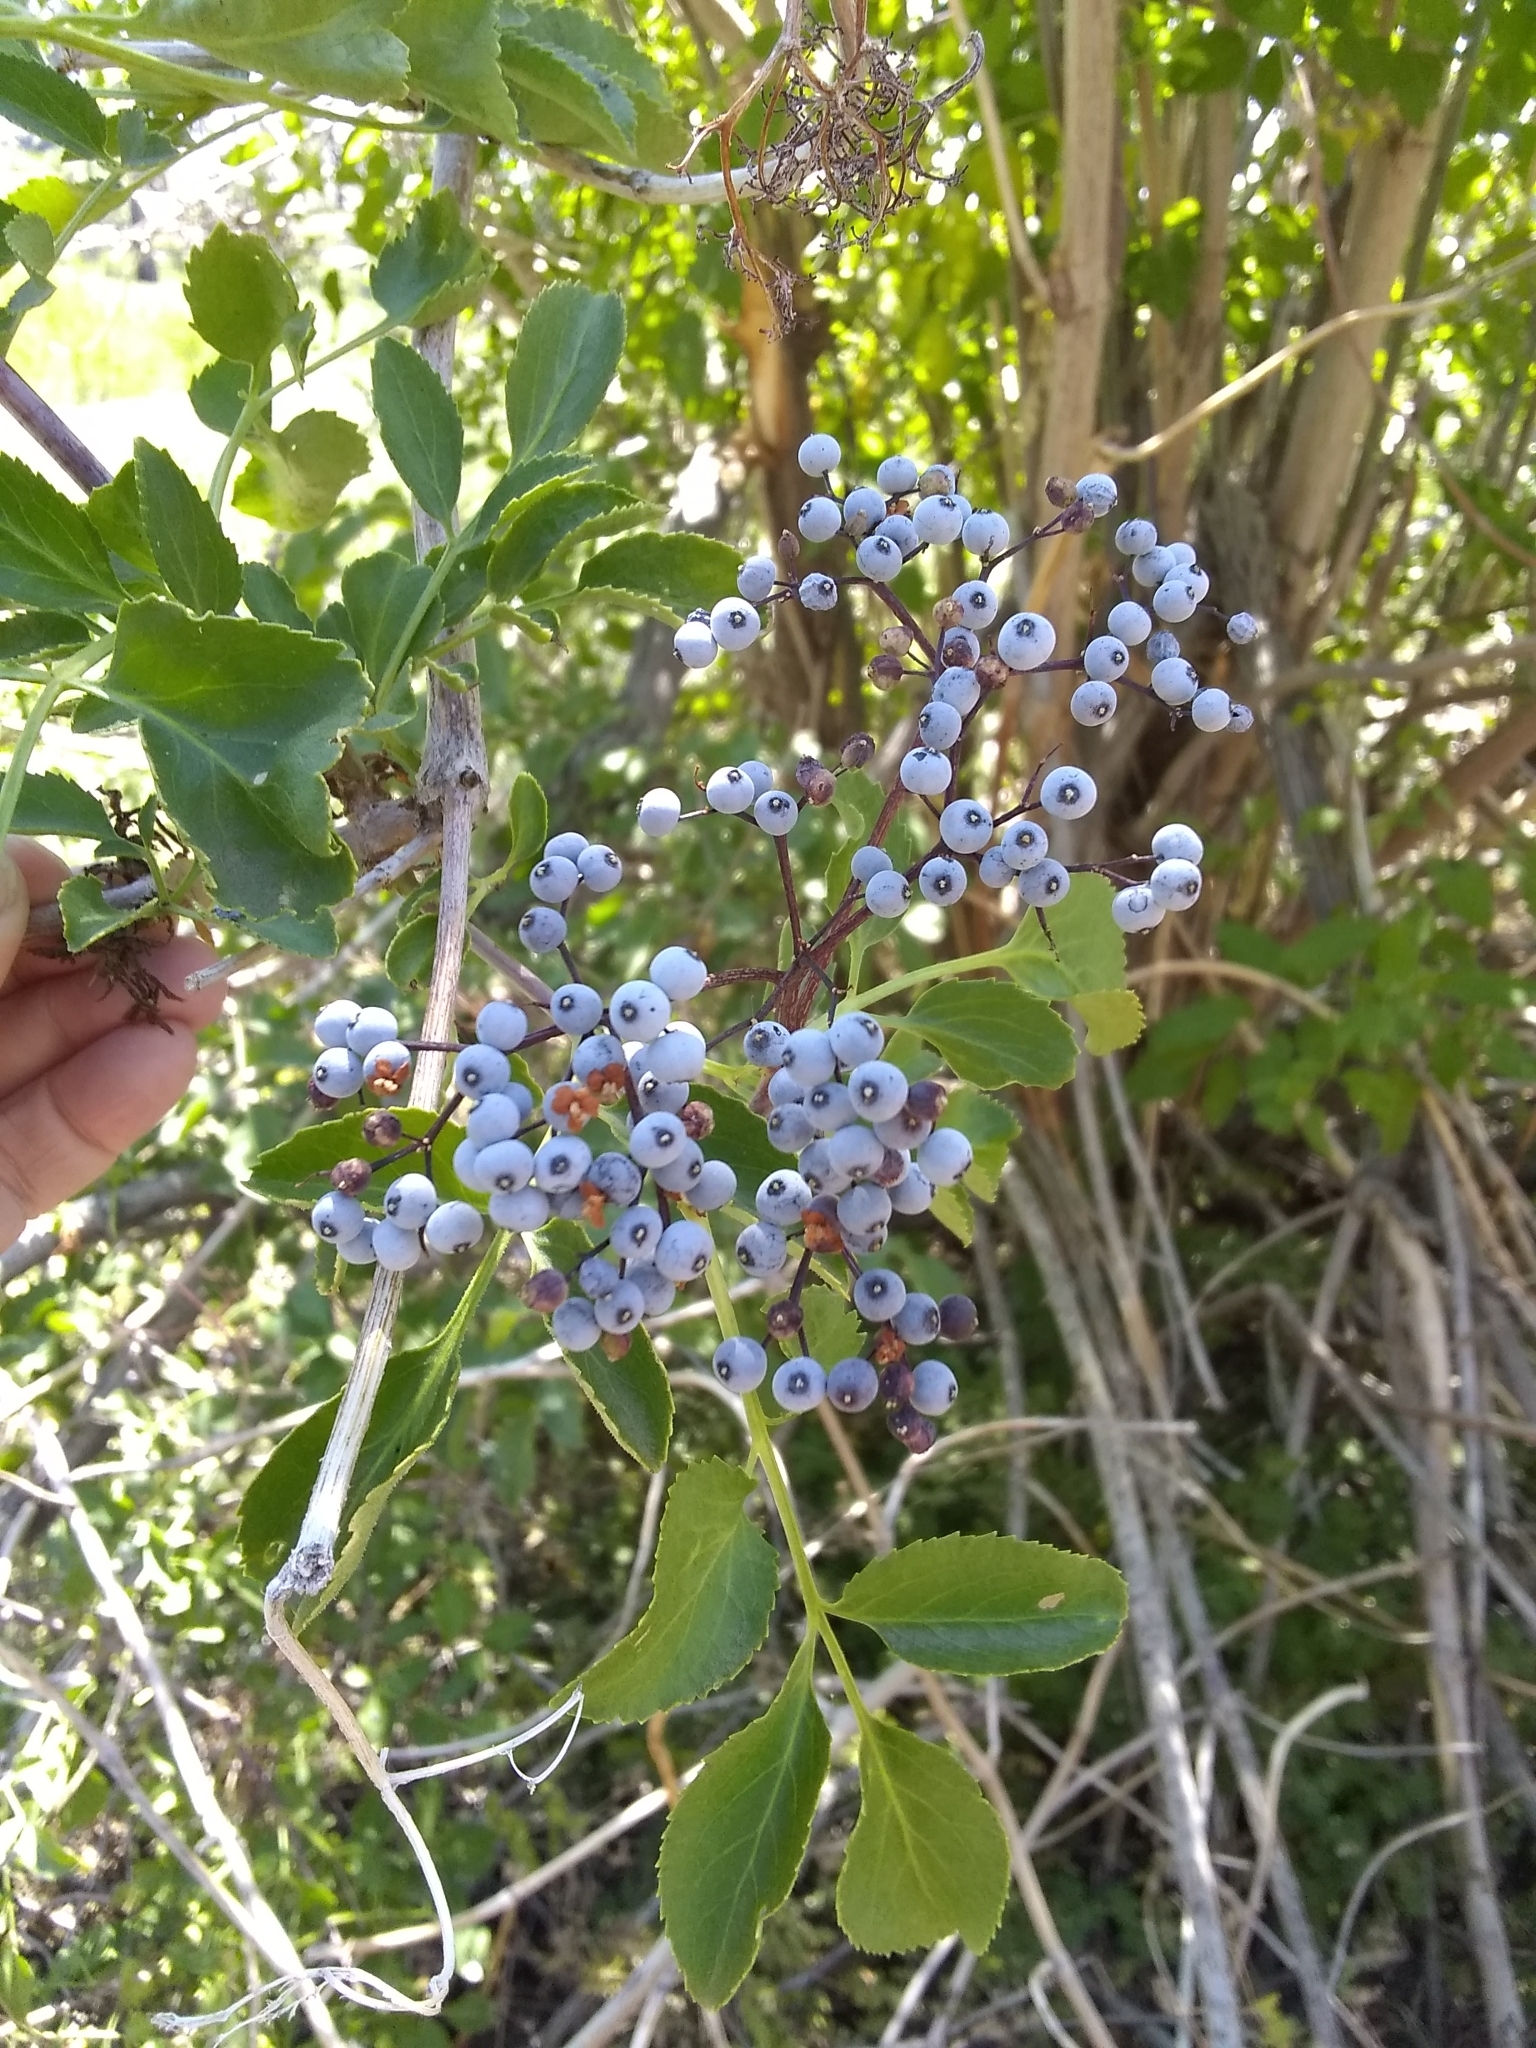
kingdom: Plantae
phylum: Tracheophyta
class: Magnoliopsida
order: Dipsacales
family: Viburnaceae
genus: Sambucus
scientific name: Sambucus cerulea
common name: Blue elder
